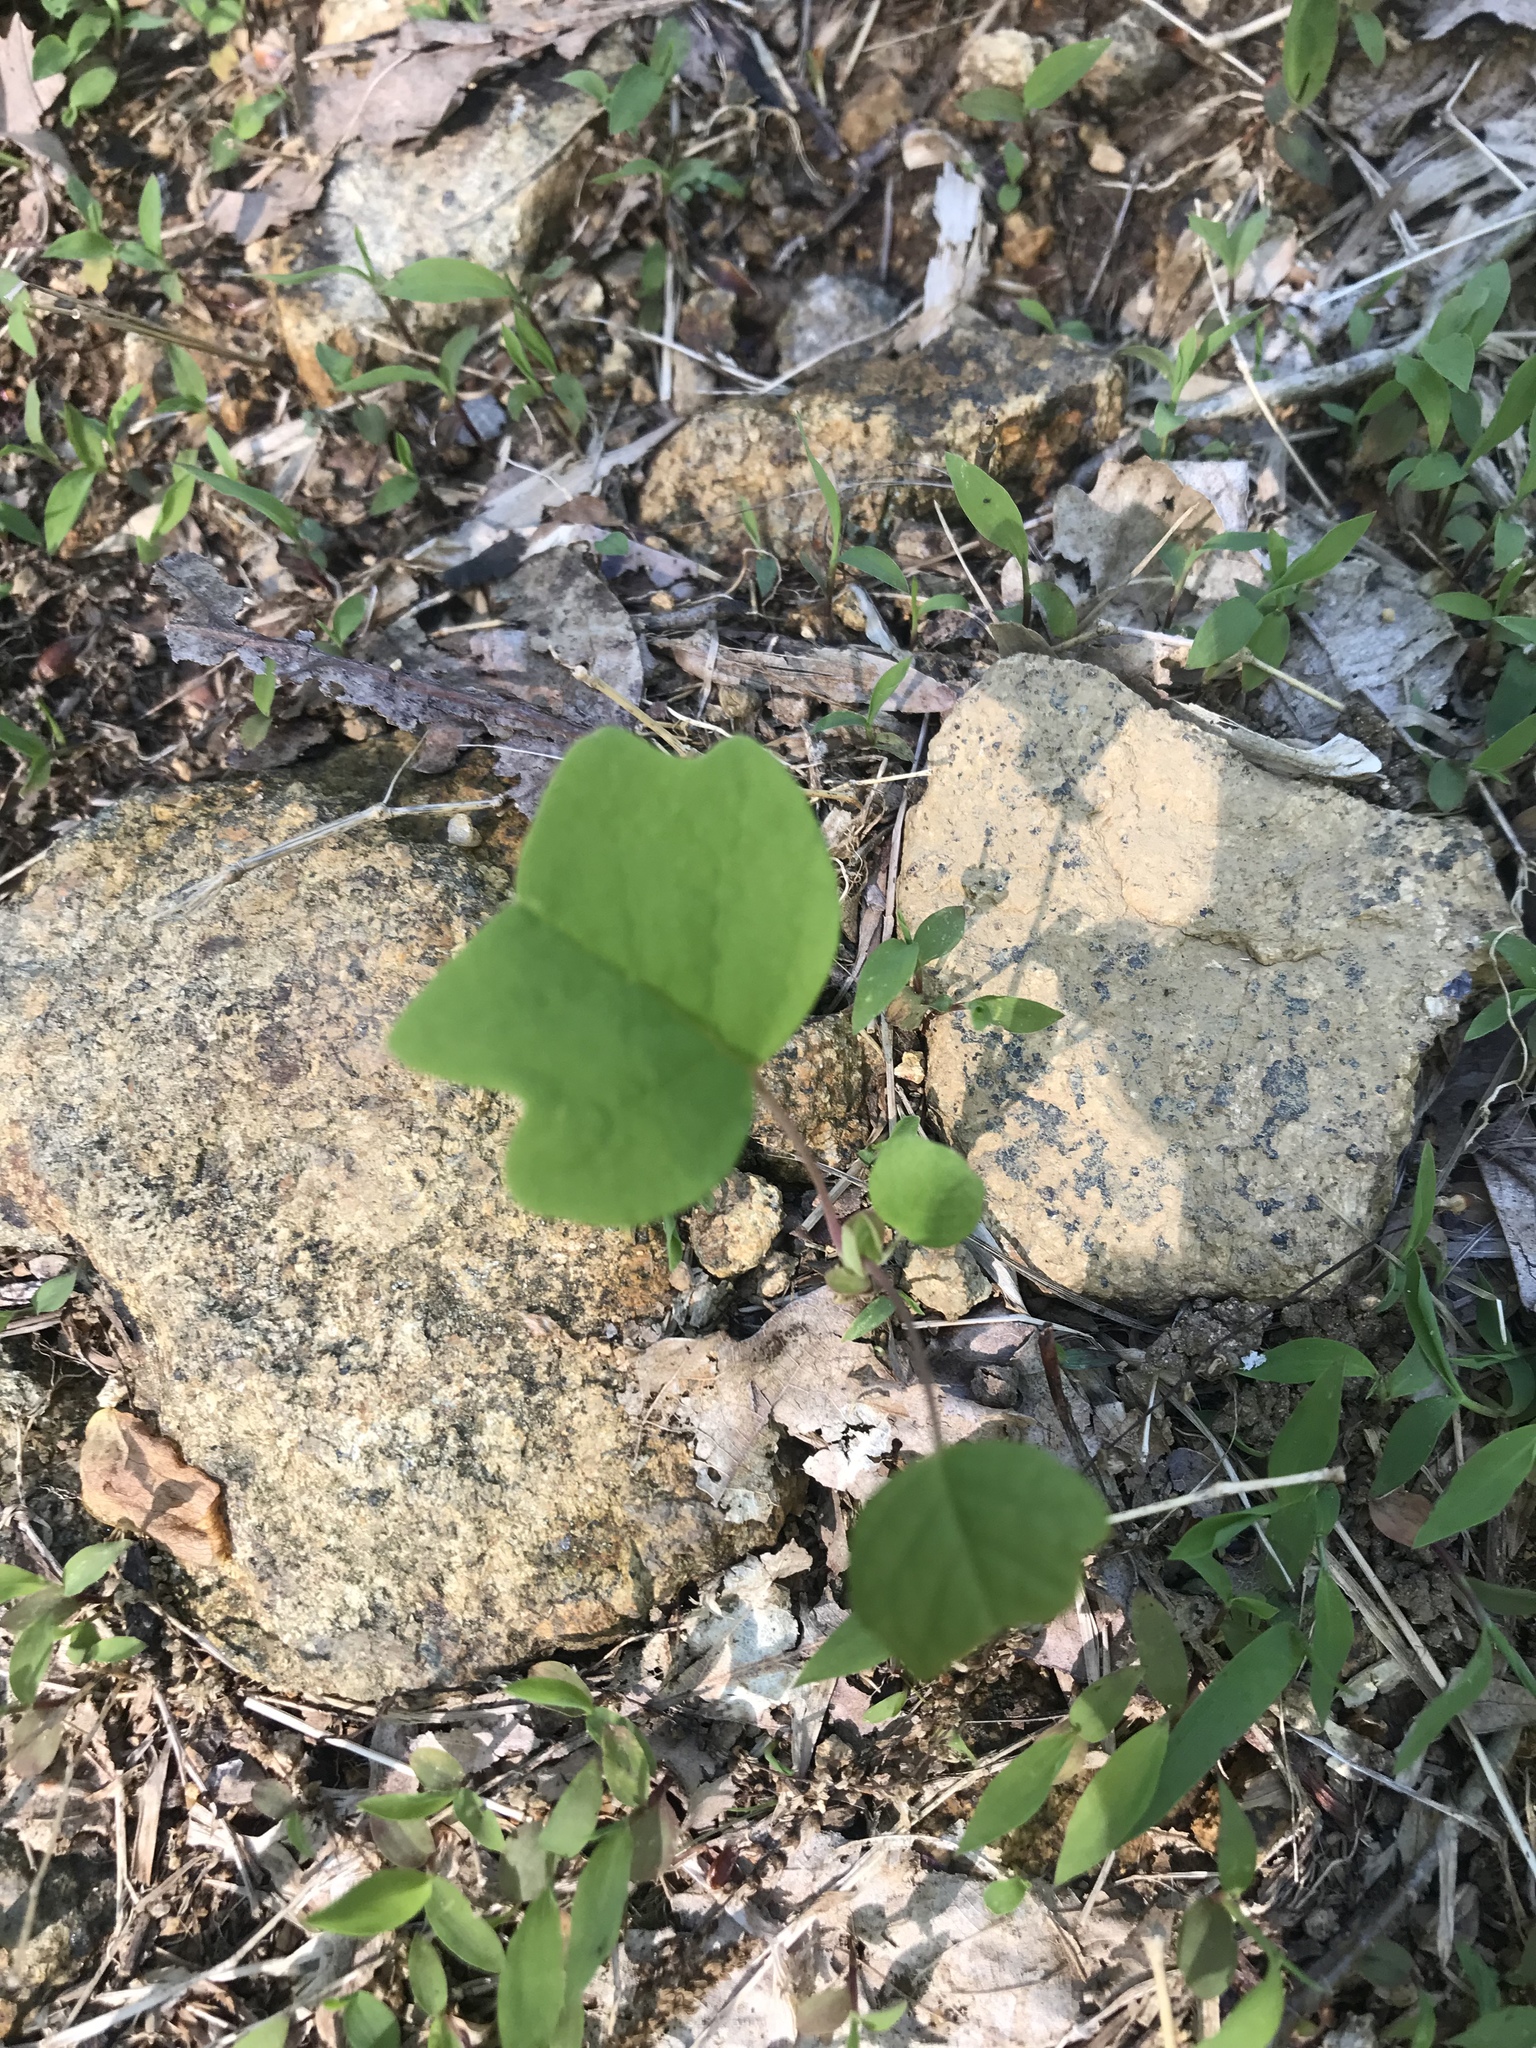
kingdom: Plantae
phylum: Tracheophyta
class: Magnoliopsida
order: Magnoliales
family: Magnoliaceae
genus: Liriodendron
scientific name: Liriodendron tulipifera
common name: Tulip tree
